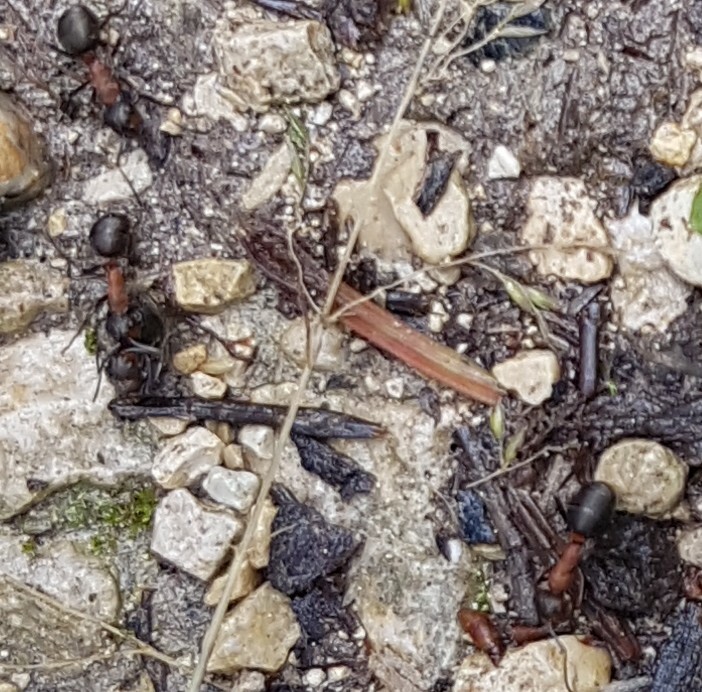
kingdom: Animalia
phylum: Arthropoda
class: Insecta
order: Hymenoptera
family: Formicidae
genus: Formica
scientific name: Formica
